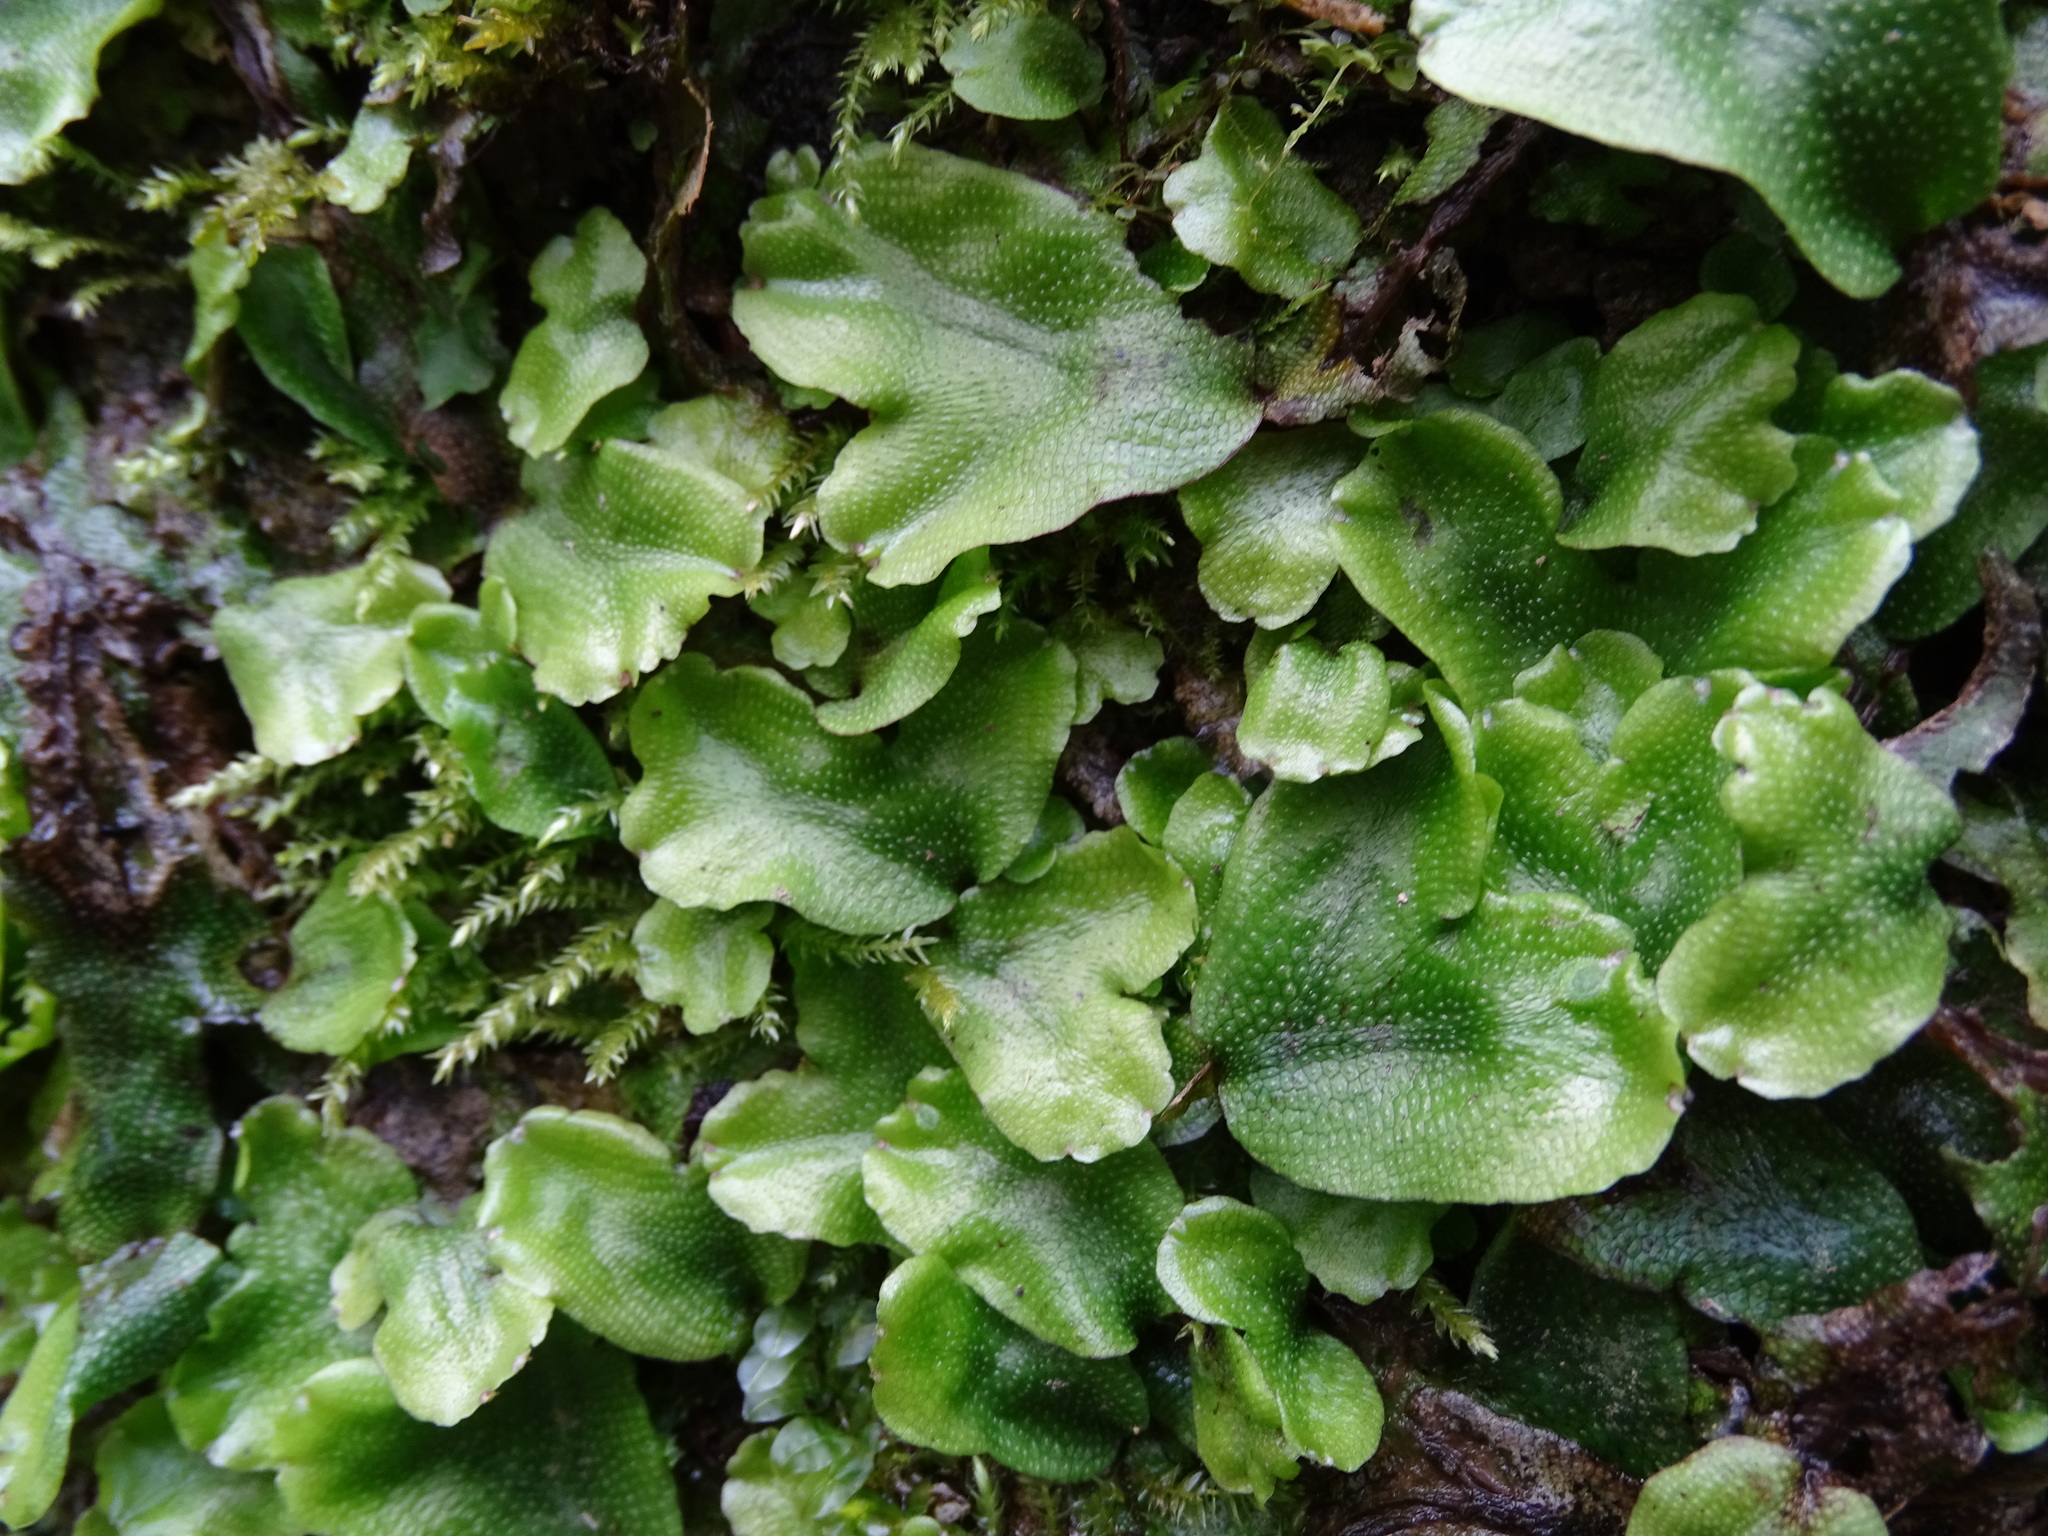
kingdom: Plantae
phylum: Marchantiophyta
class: Marchantiopsida
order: Marchantiales
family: Conocephalaceae
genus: Conocephalum
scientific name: Conocephalum conicum
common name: Great scented liverwort
